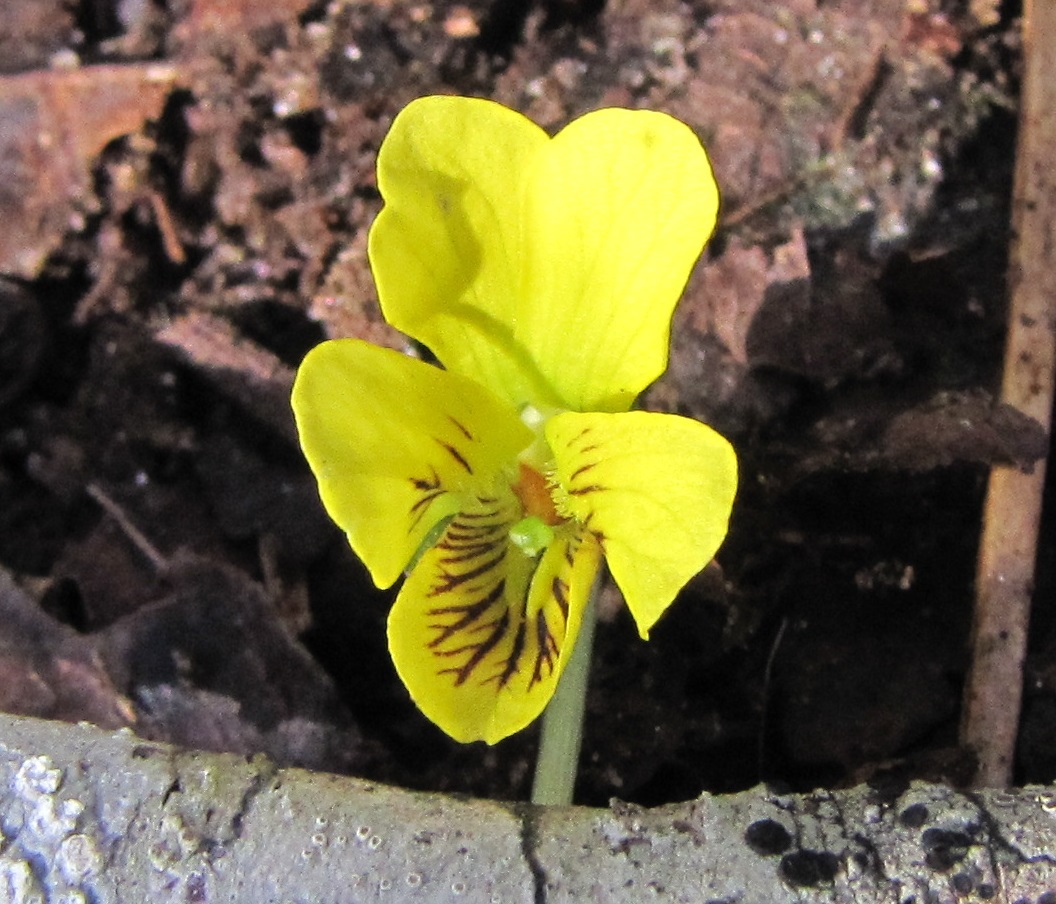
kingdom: Plantae
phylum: Tracheophyta
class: Magnoliopsida
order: Malpighiales
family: Violaceae
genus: Viola
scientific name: Viola rotundifolia
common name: Early yellow violet
